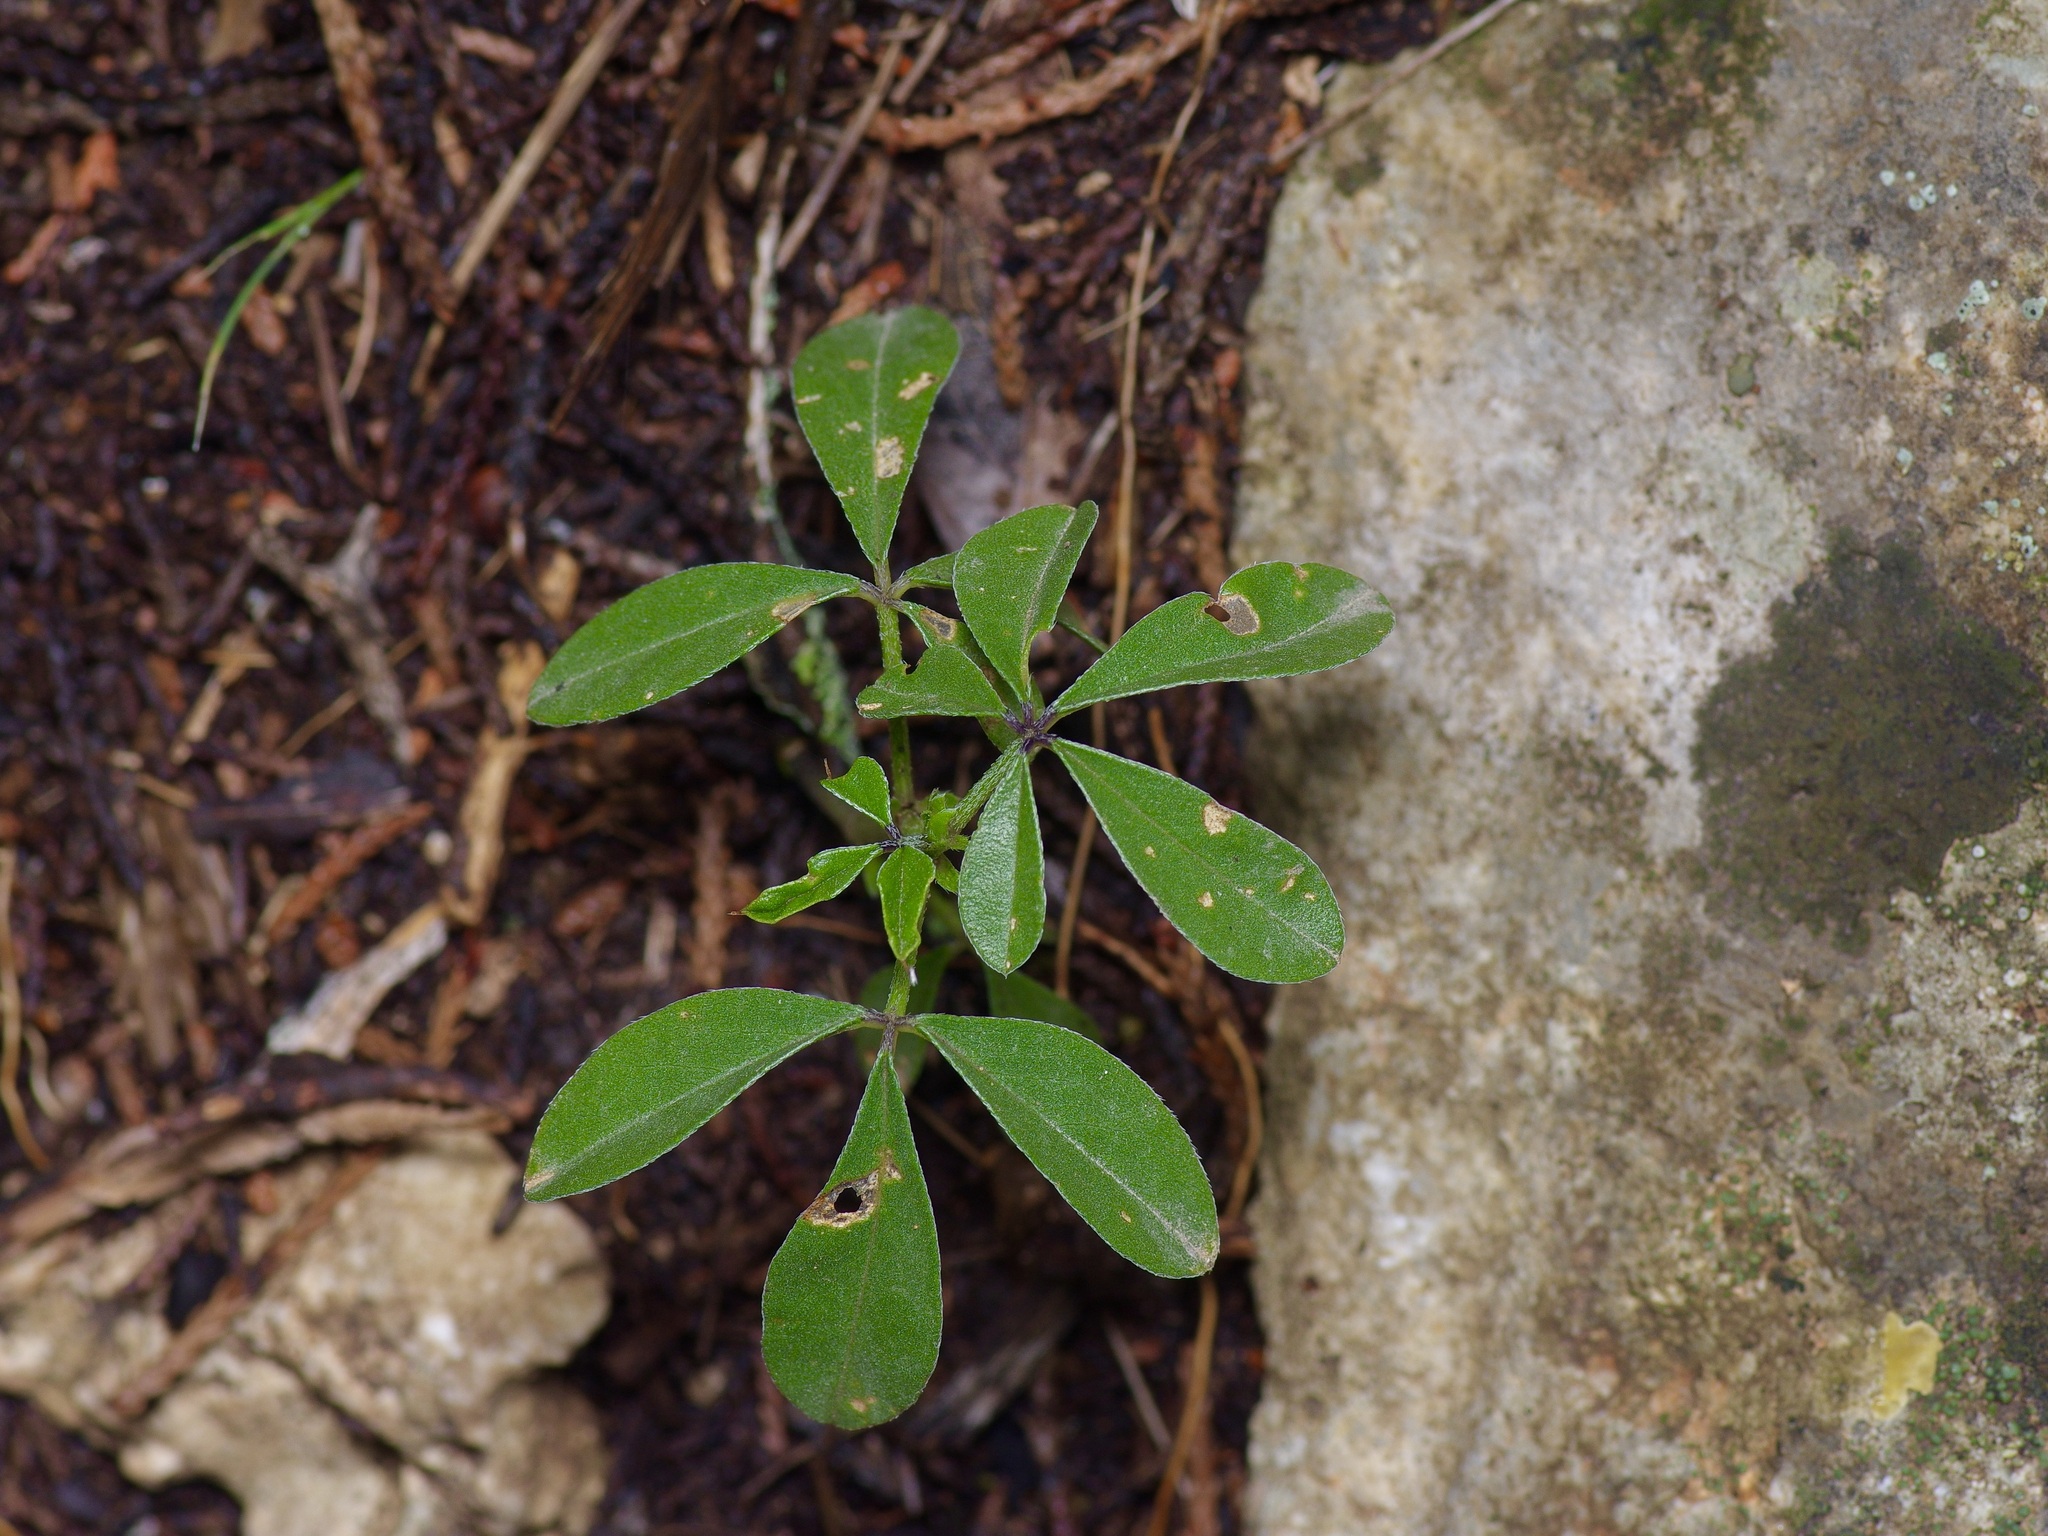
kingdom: Plantae
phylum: Tracheophyta
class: Magnoliopsida
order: Fabales
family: Fabaceae
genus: Pediomelum
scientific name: Pediomelum latestipulatum
